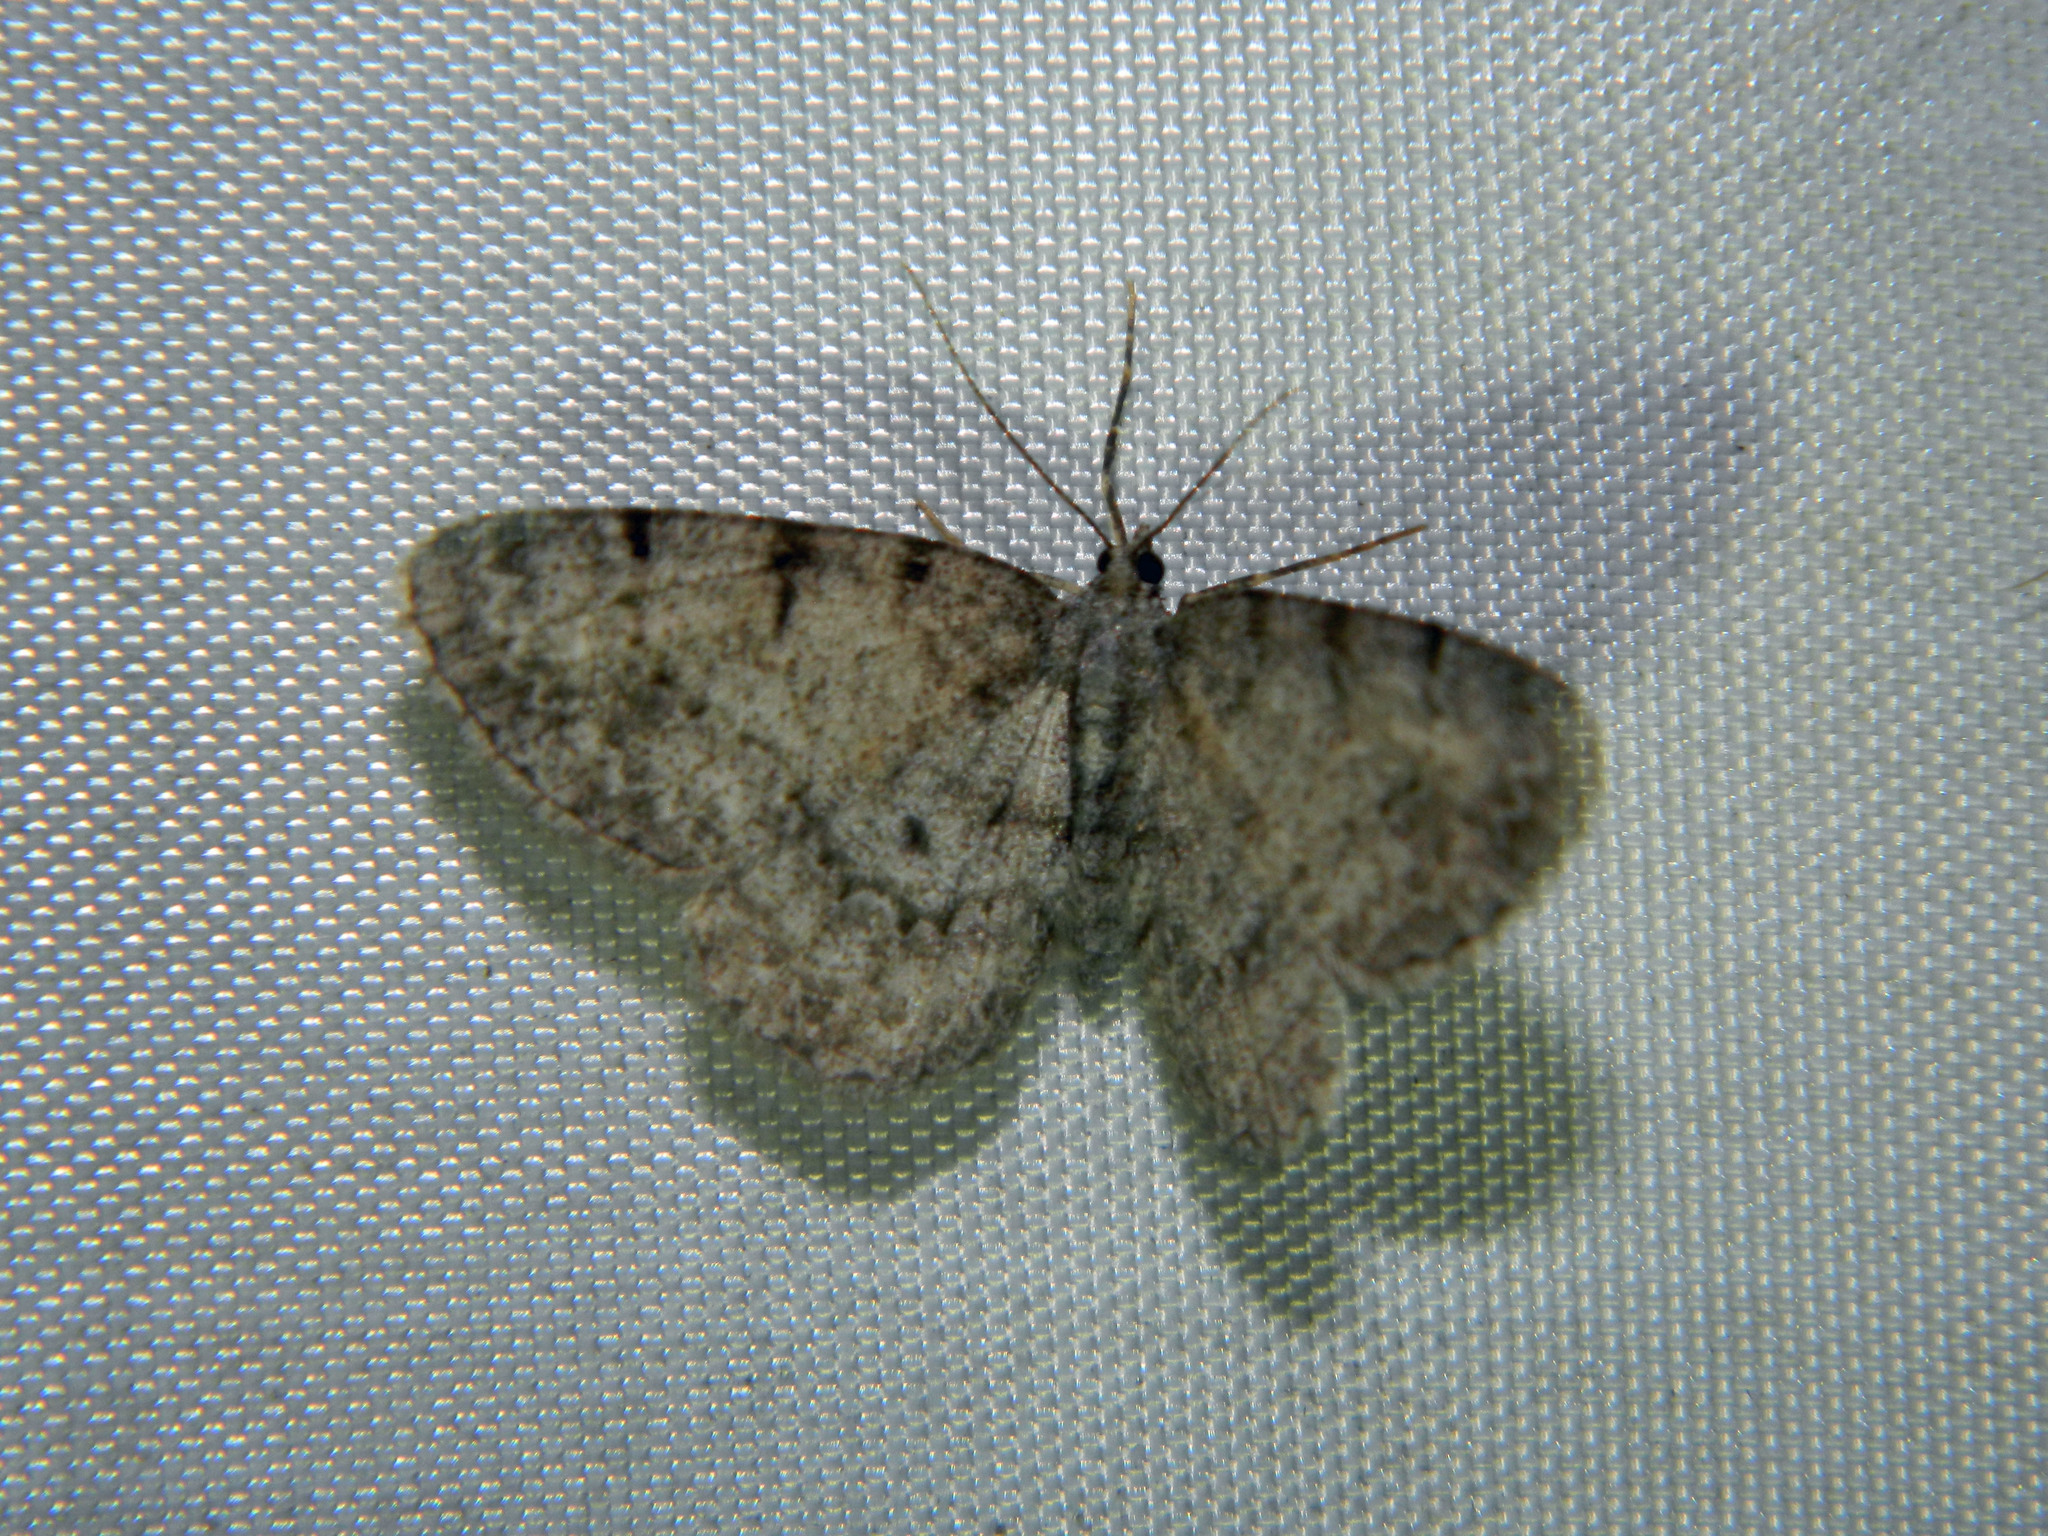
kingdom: Animalia
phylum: Arthropoda
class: Insecta
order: Lepidoptera
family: Geometridae
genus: Protoboarmia
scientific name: Protoboarmia porcelaria
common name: Porcelain gray
